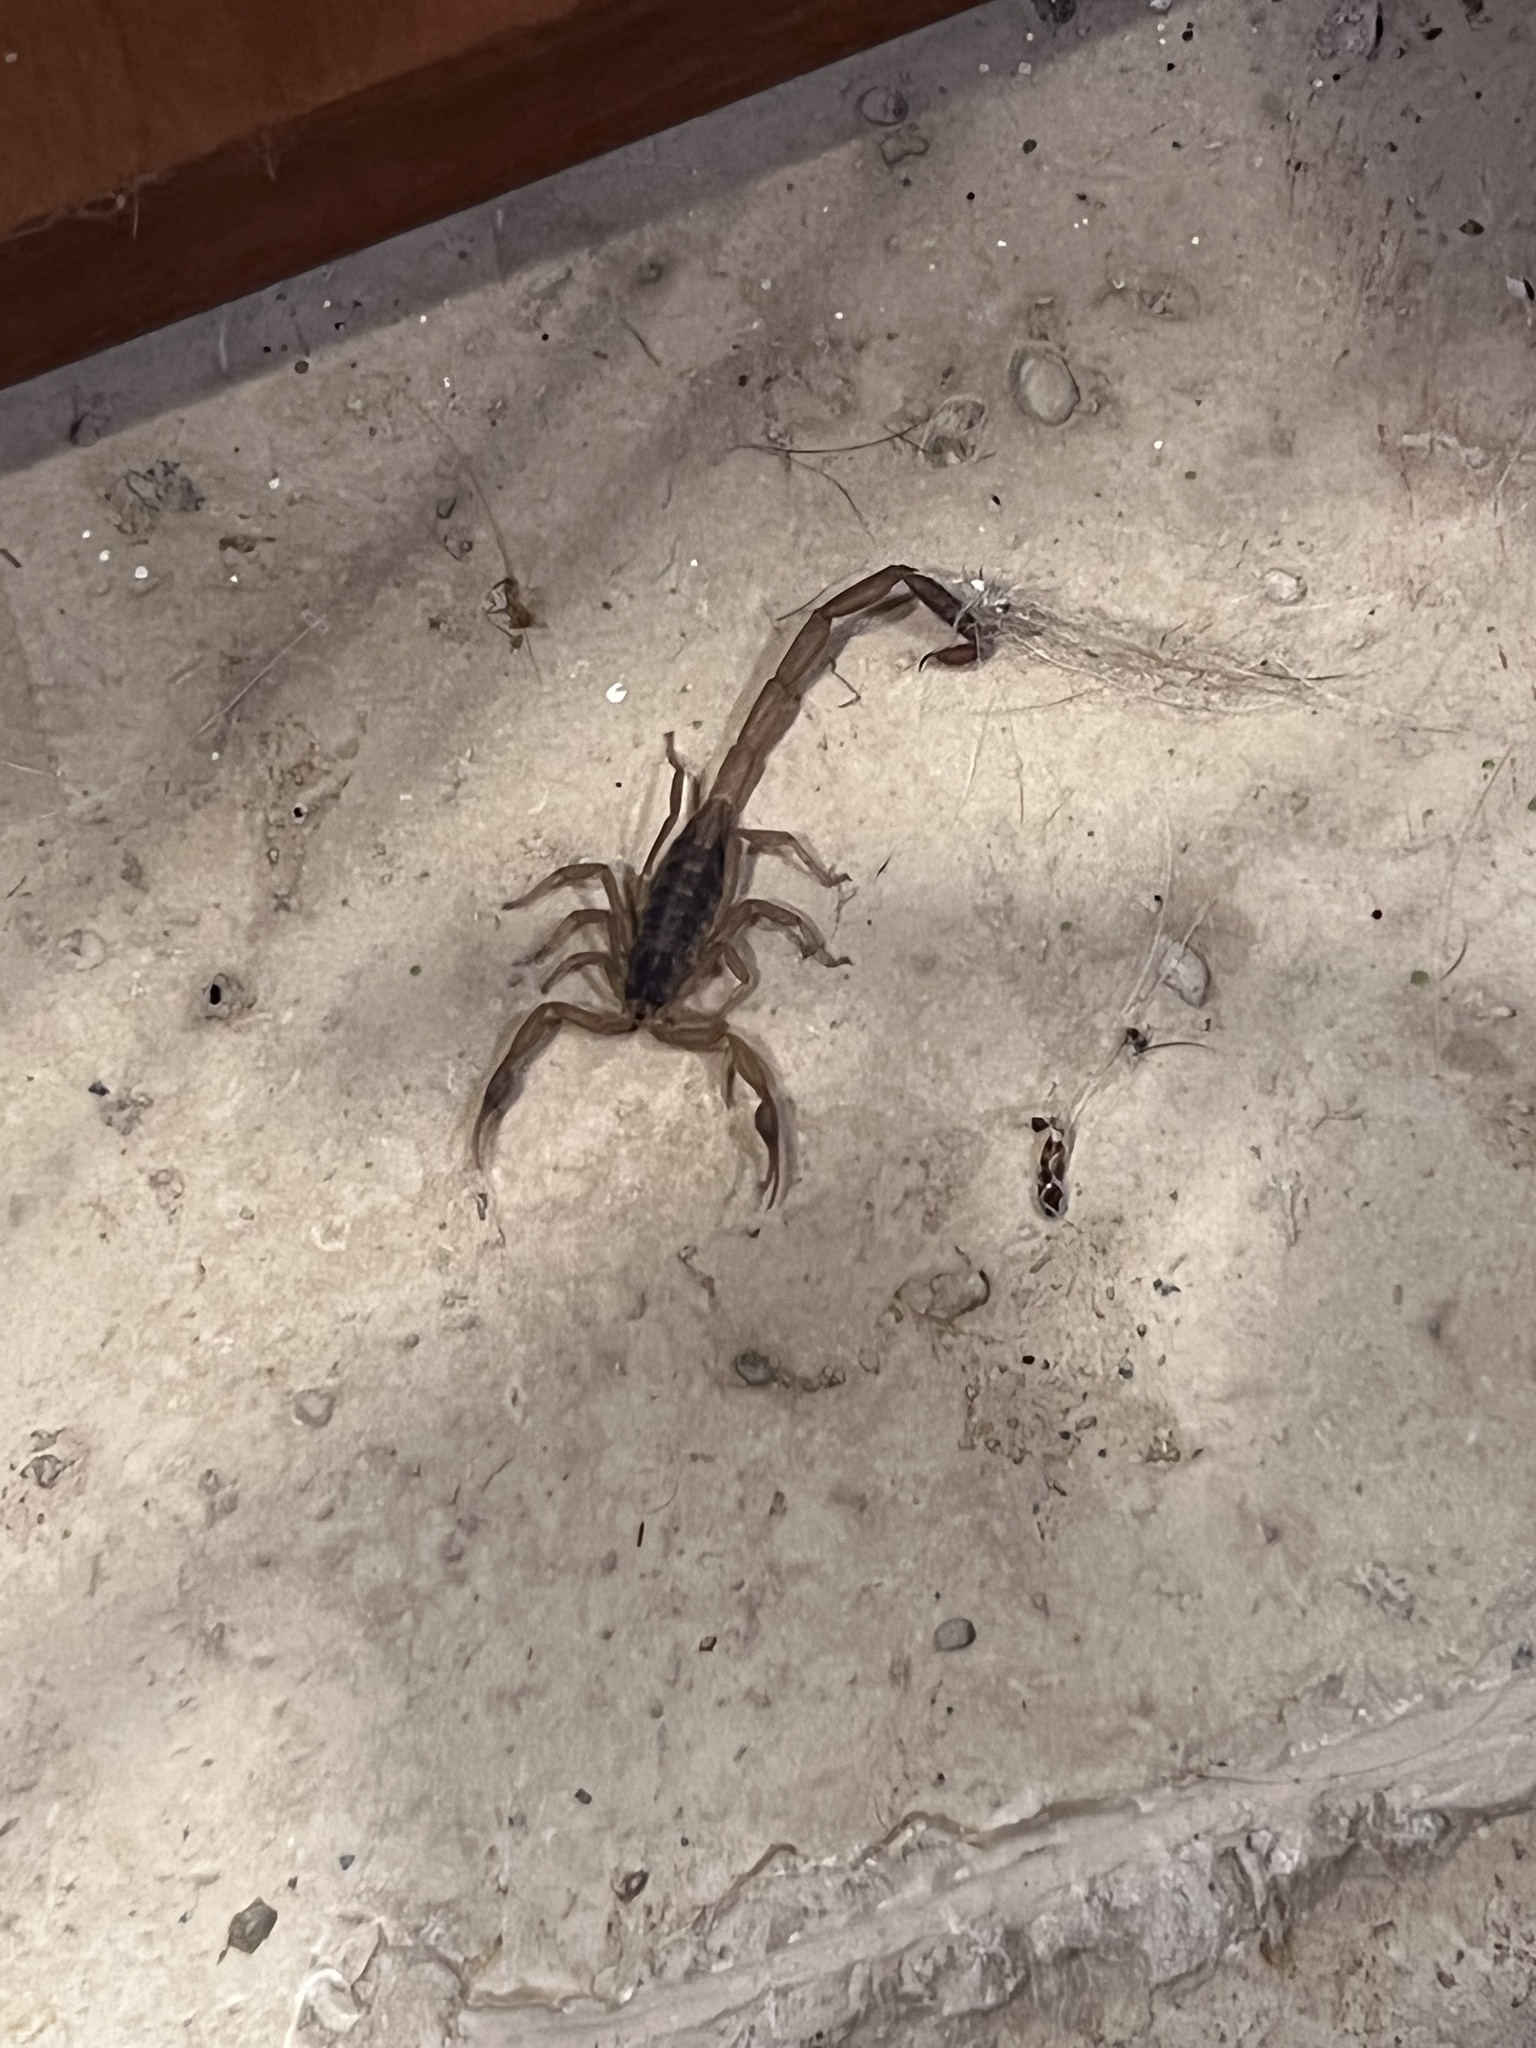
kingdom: Animalia
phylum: Arthropoda
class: Arachnida
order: Scorpiones
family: Buthidae
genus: Centruroides
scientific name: Centruroides vittatus
